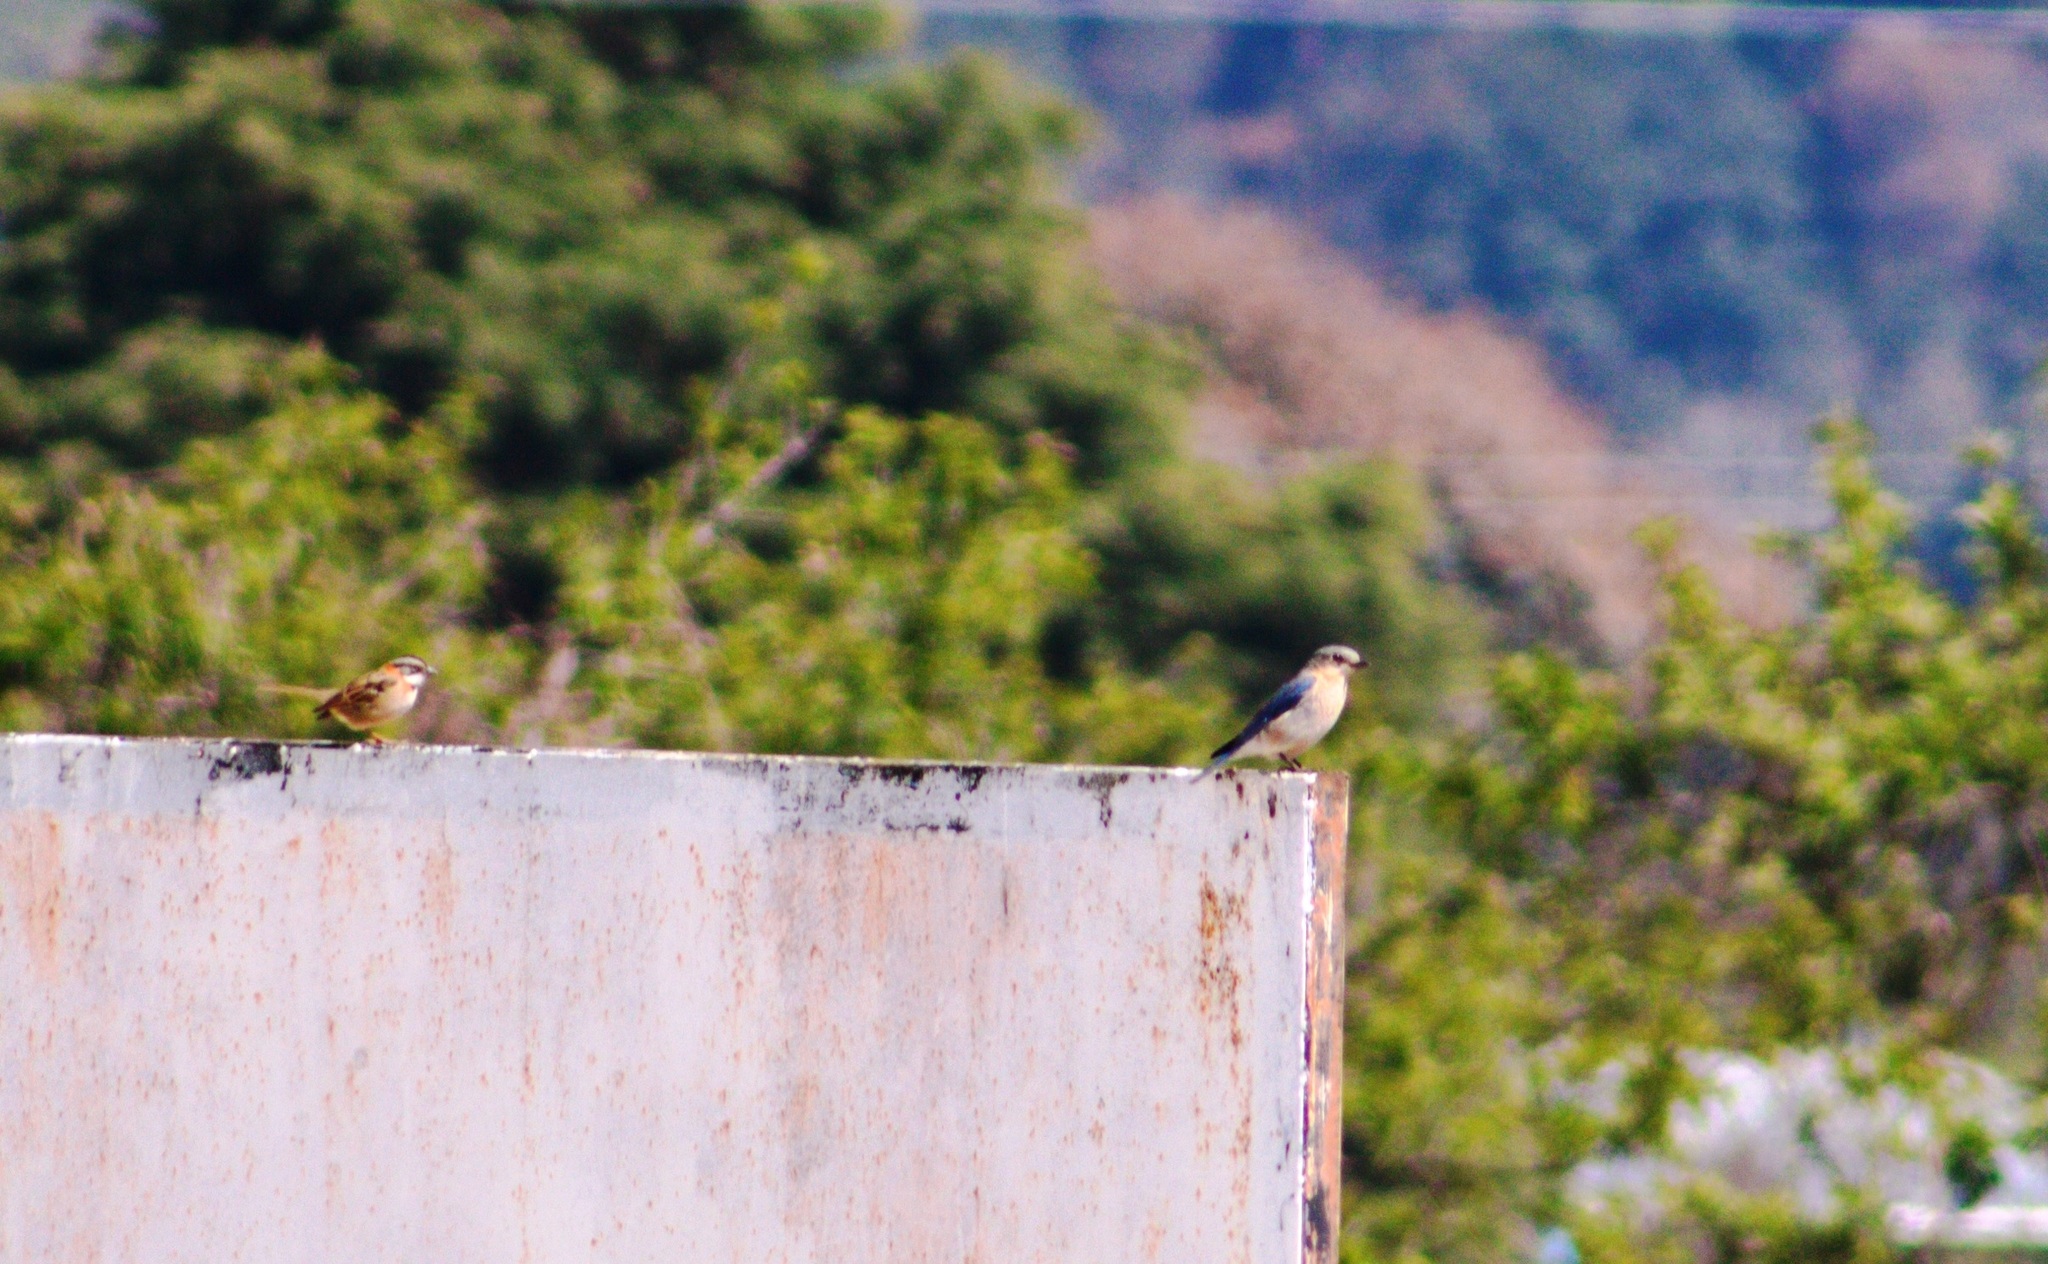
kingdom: Animalia
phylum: Chordata
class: Aves
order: Passeriformes
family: Turdidae
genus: Sialia
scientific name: Sialia sialis
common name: Eastern bluebird
